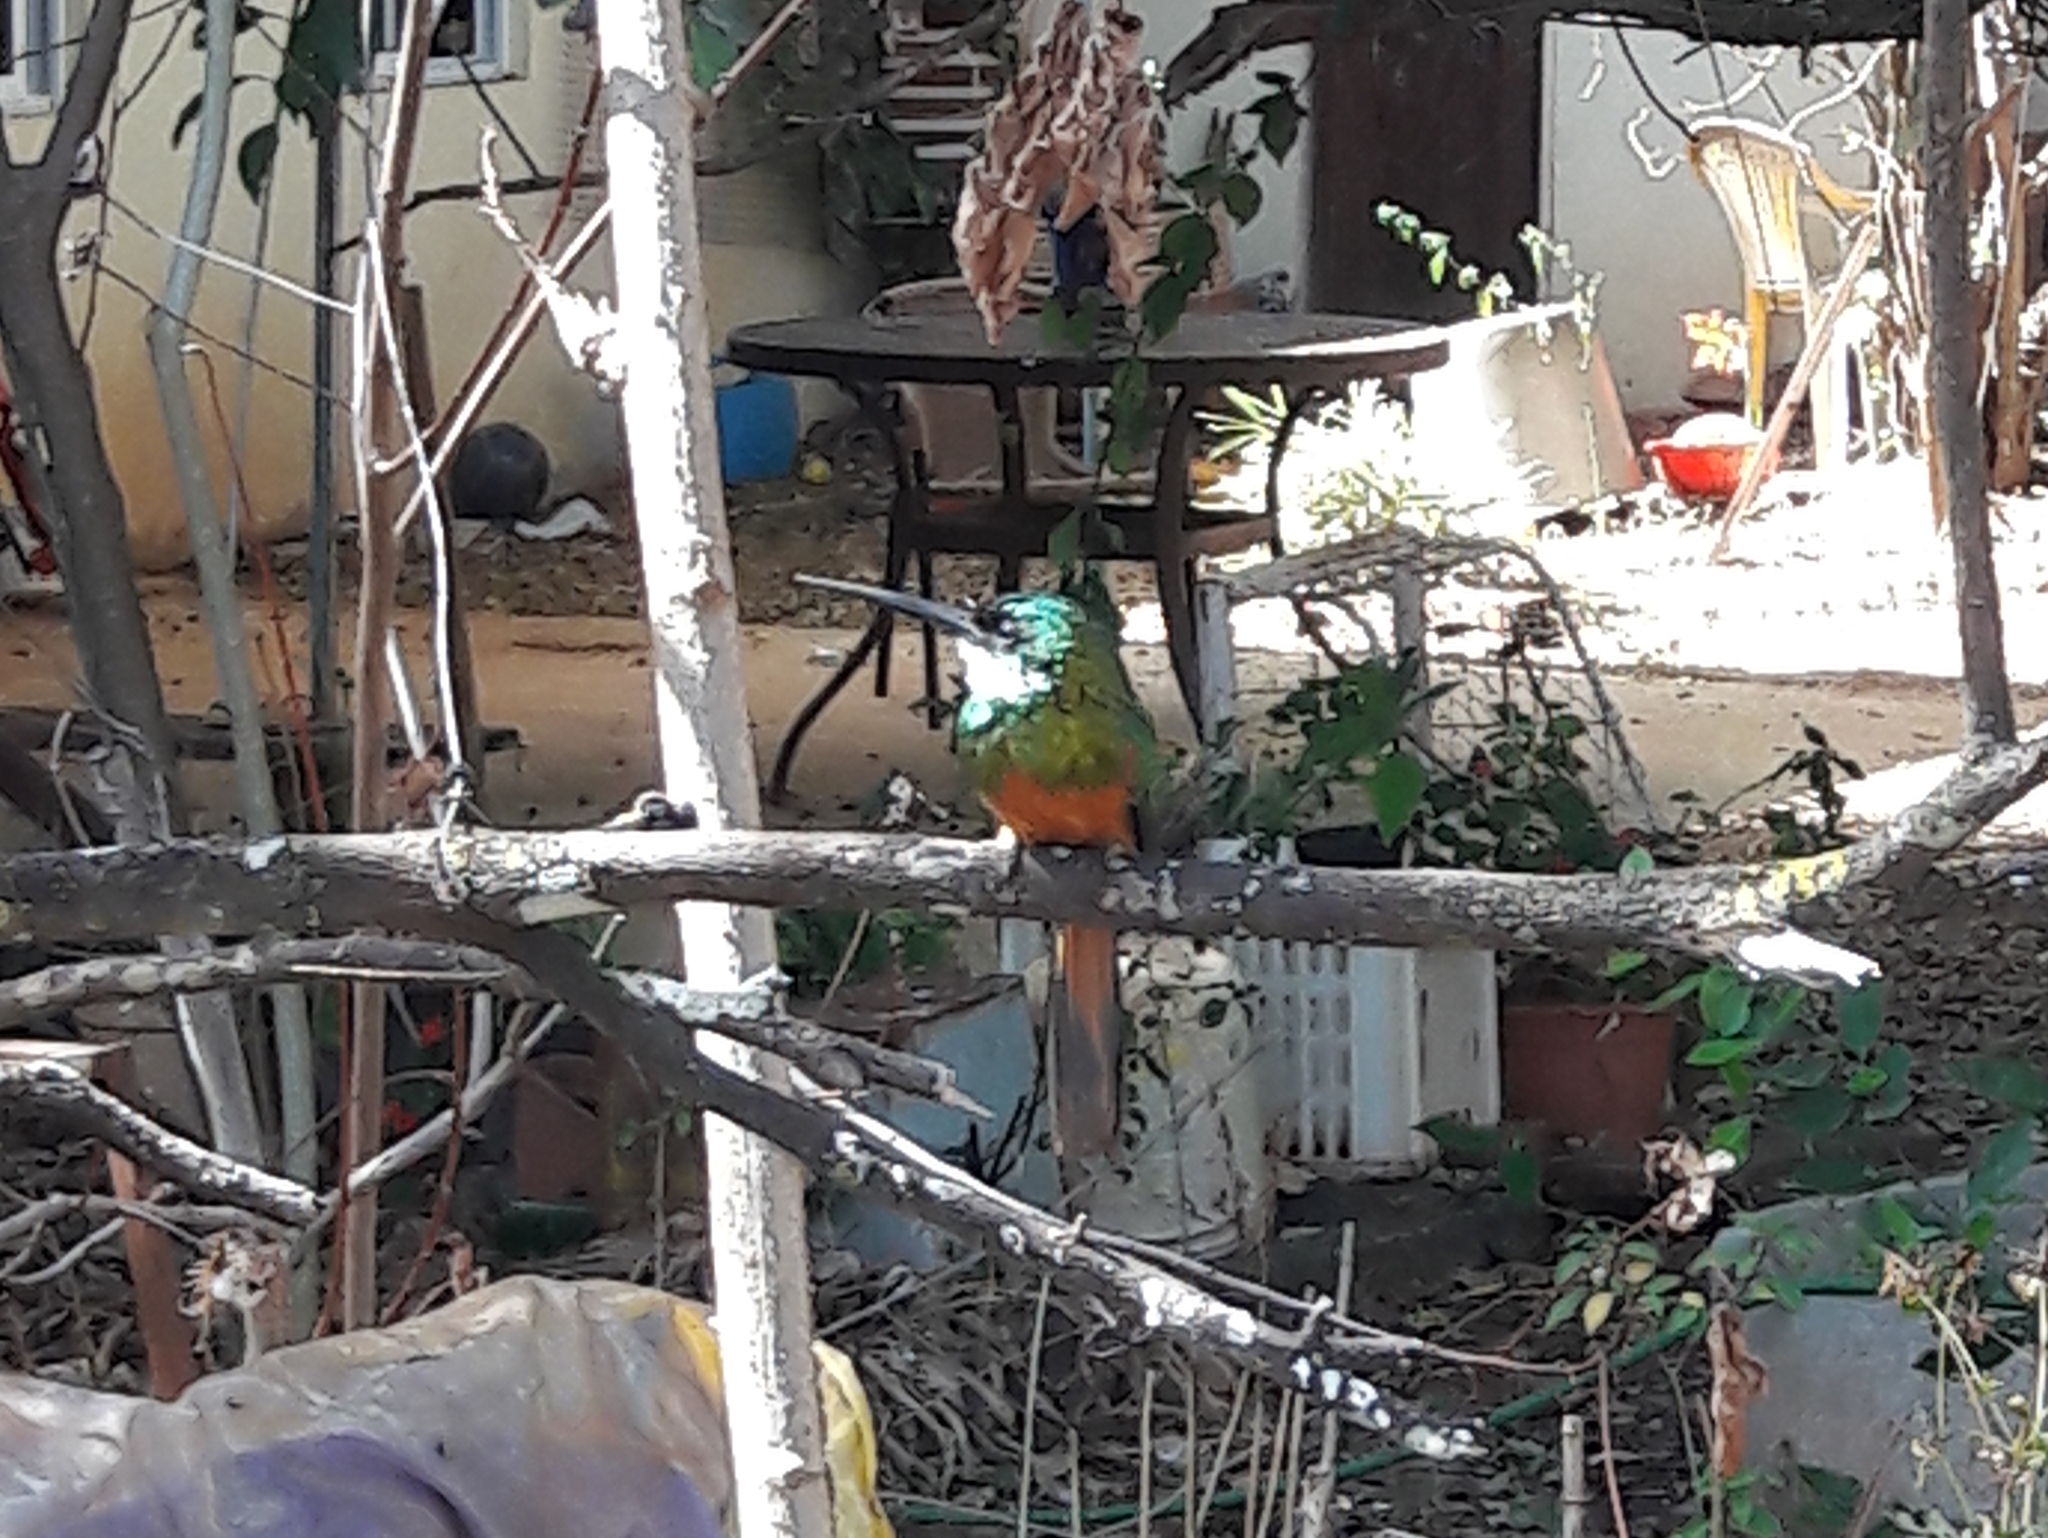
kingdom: Animalia
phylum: Chordata
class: Aves
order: Piciformes
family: Galbulidae
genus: Galbula
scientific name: Galbula ruficauda
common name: Rufous-tailed jacamar
